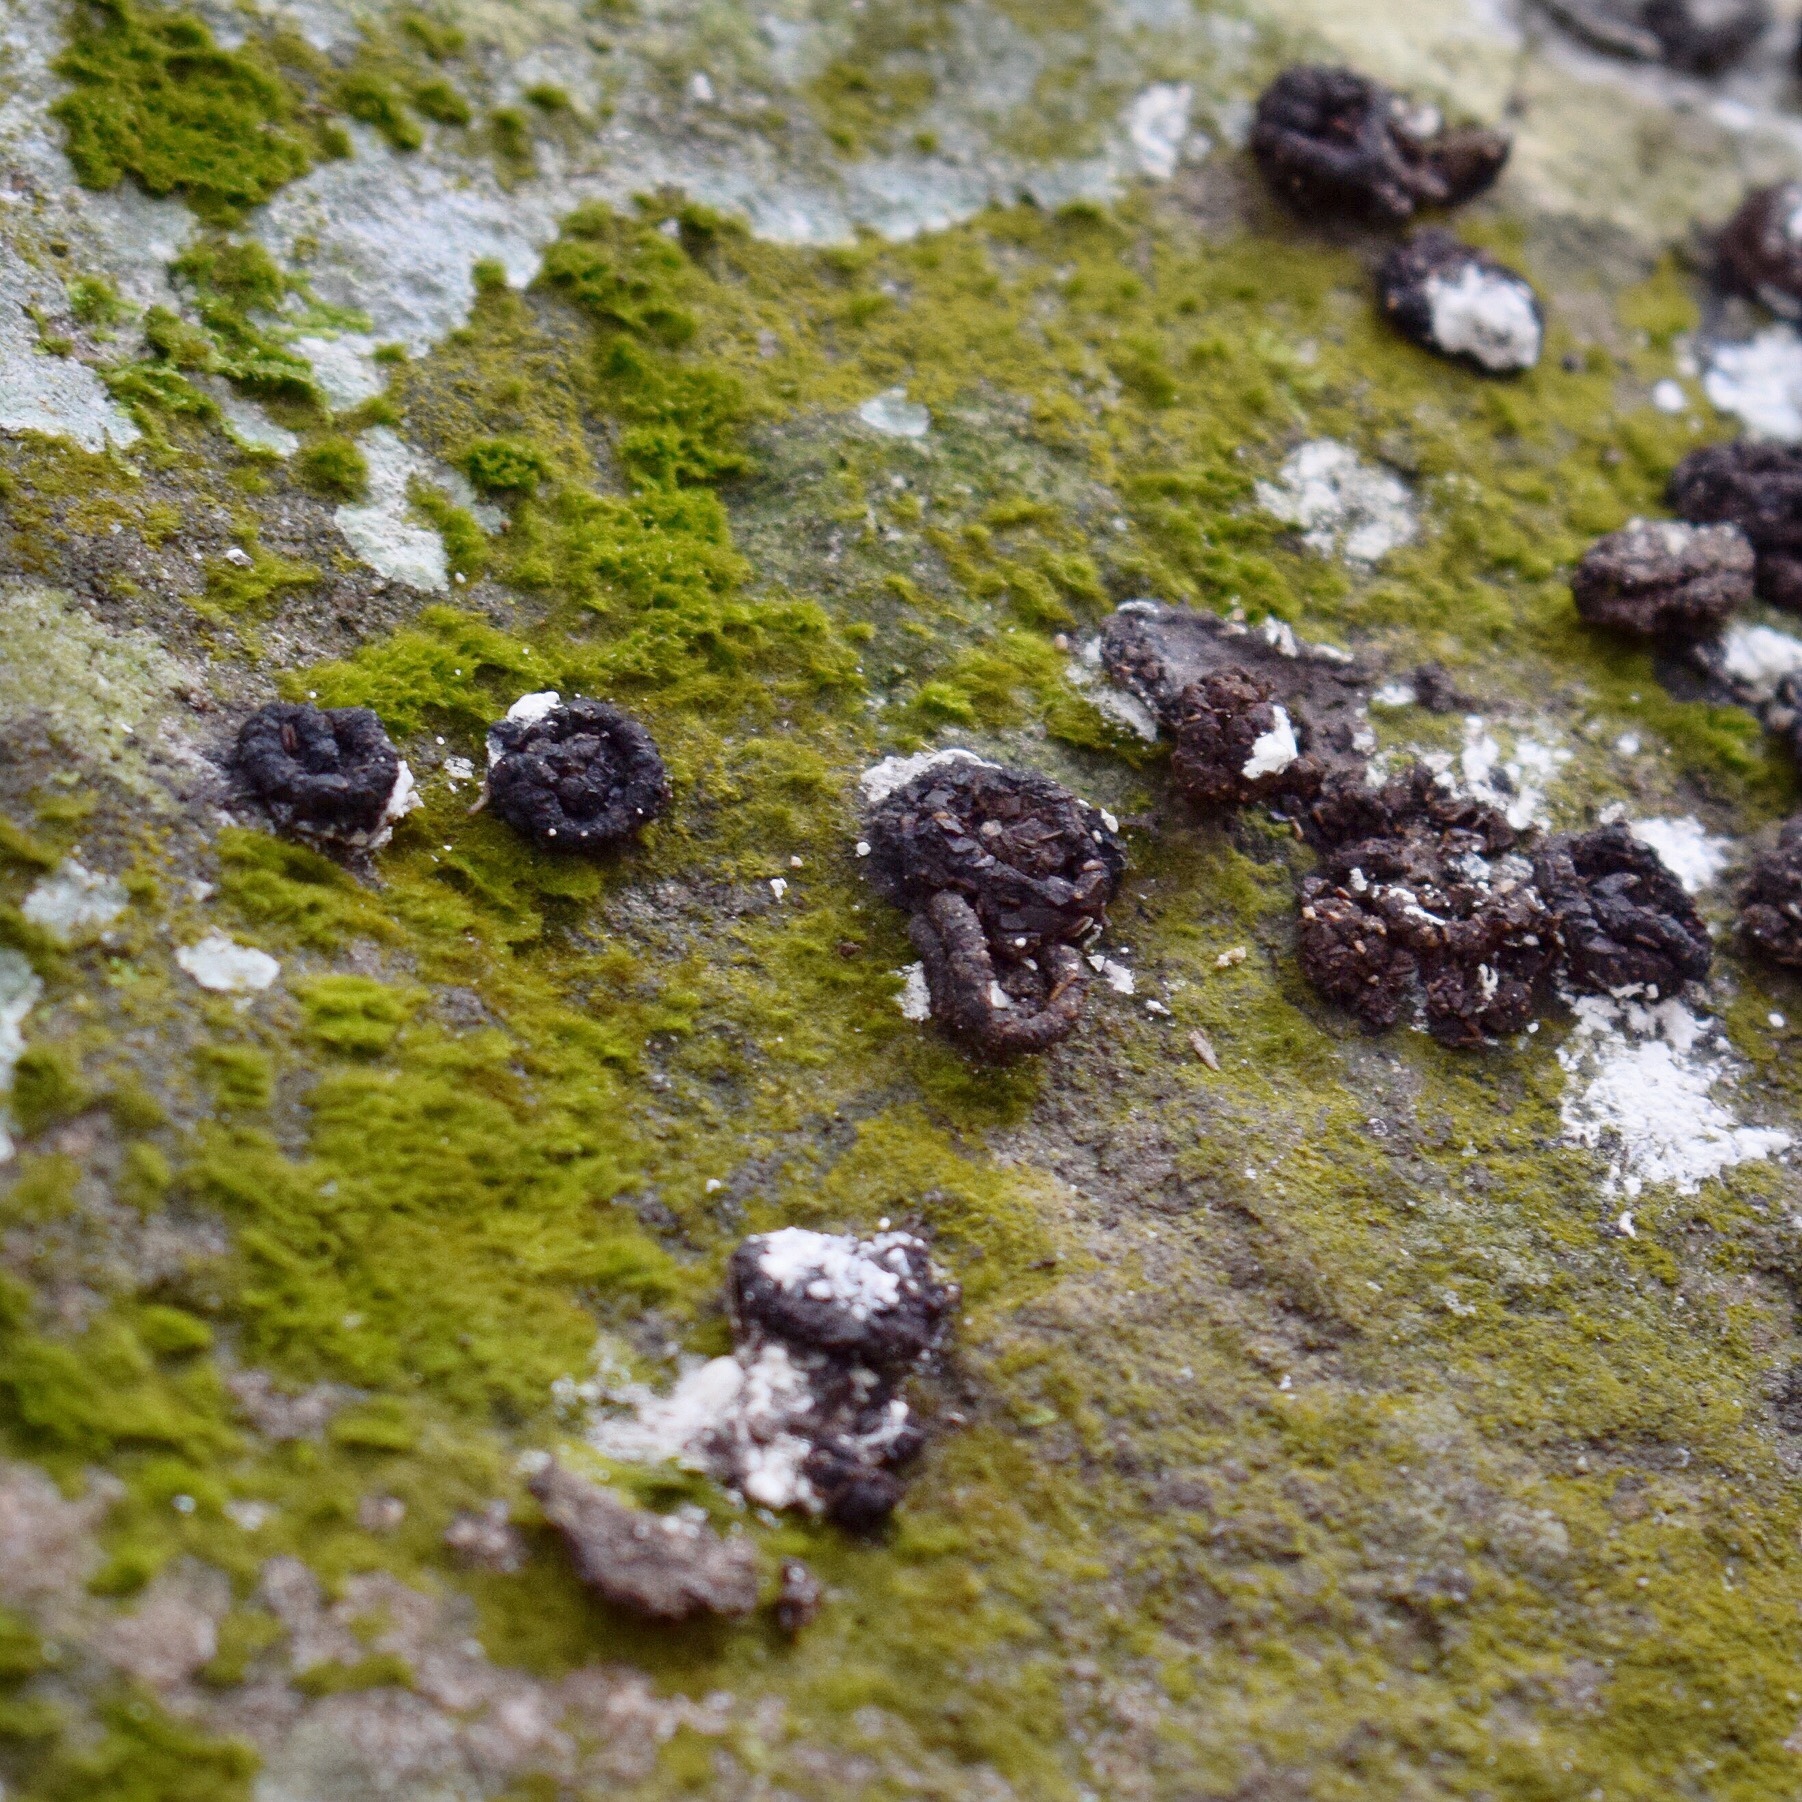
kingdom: Animalia
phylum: Chordata
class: Aves
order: Columbiformes
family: Columbidae
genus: Treron
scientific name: Treron calvus
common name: African green pigeon
